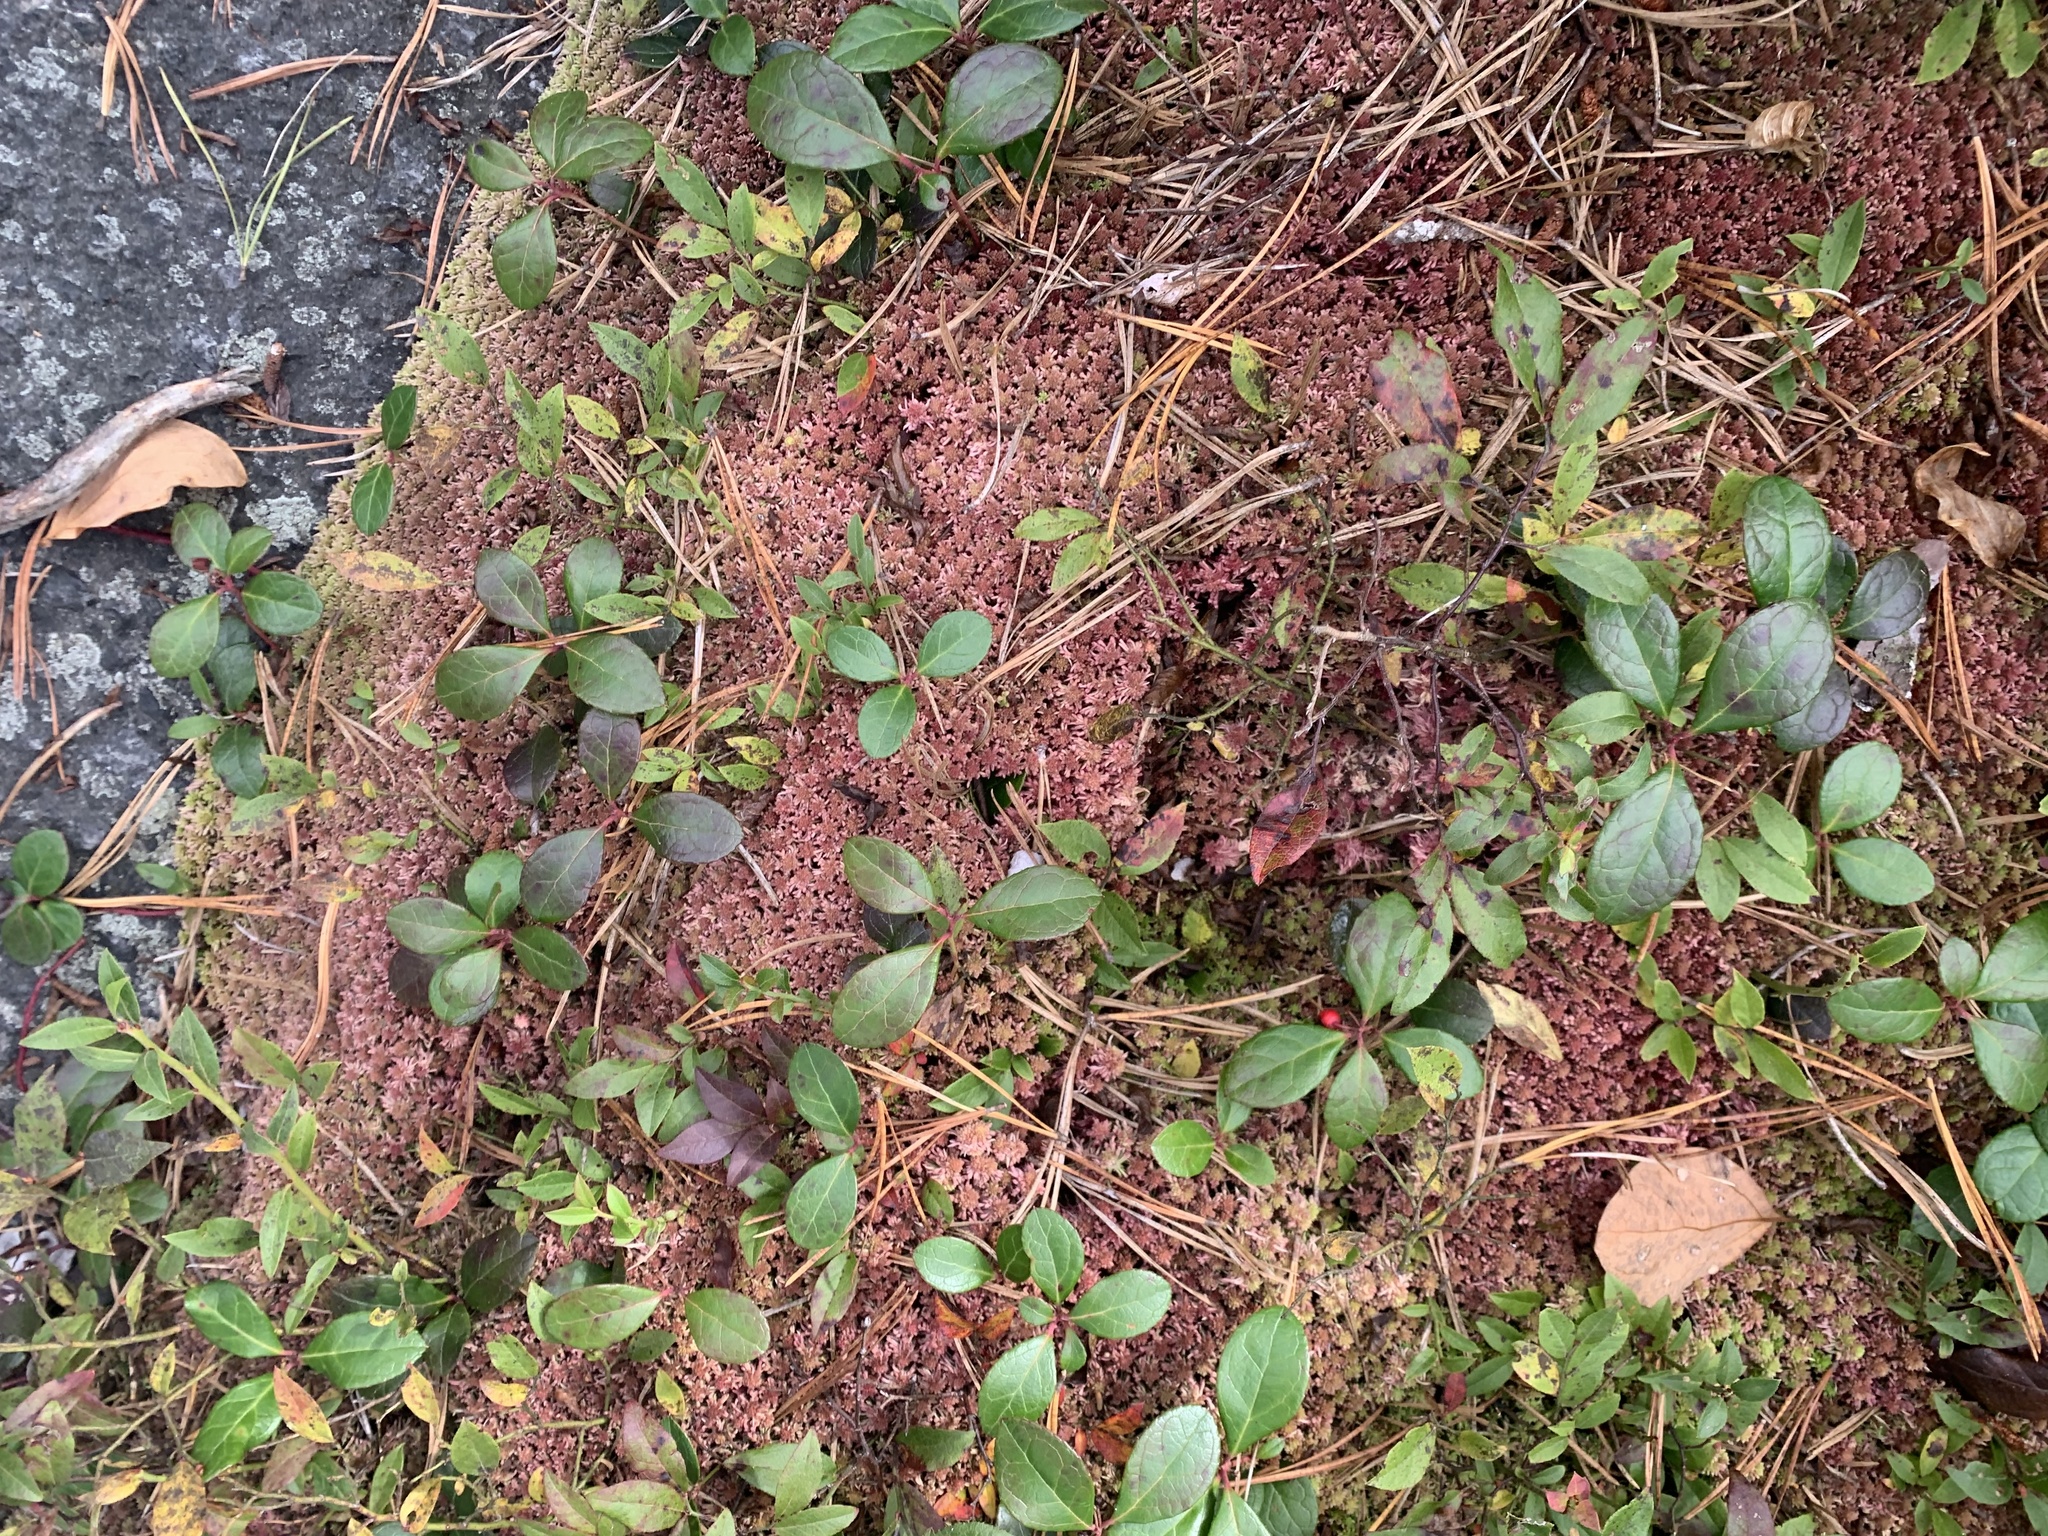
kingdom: Plantae
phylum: Tracheophyta
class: Magnoliopsida
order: Ericales
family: Ericaceae
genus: Gaultheria
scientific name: Gaultheria procumbens
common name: Checkerberry
